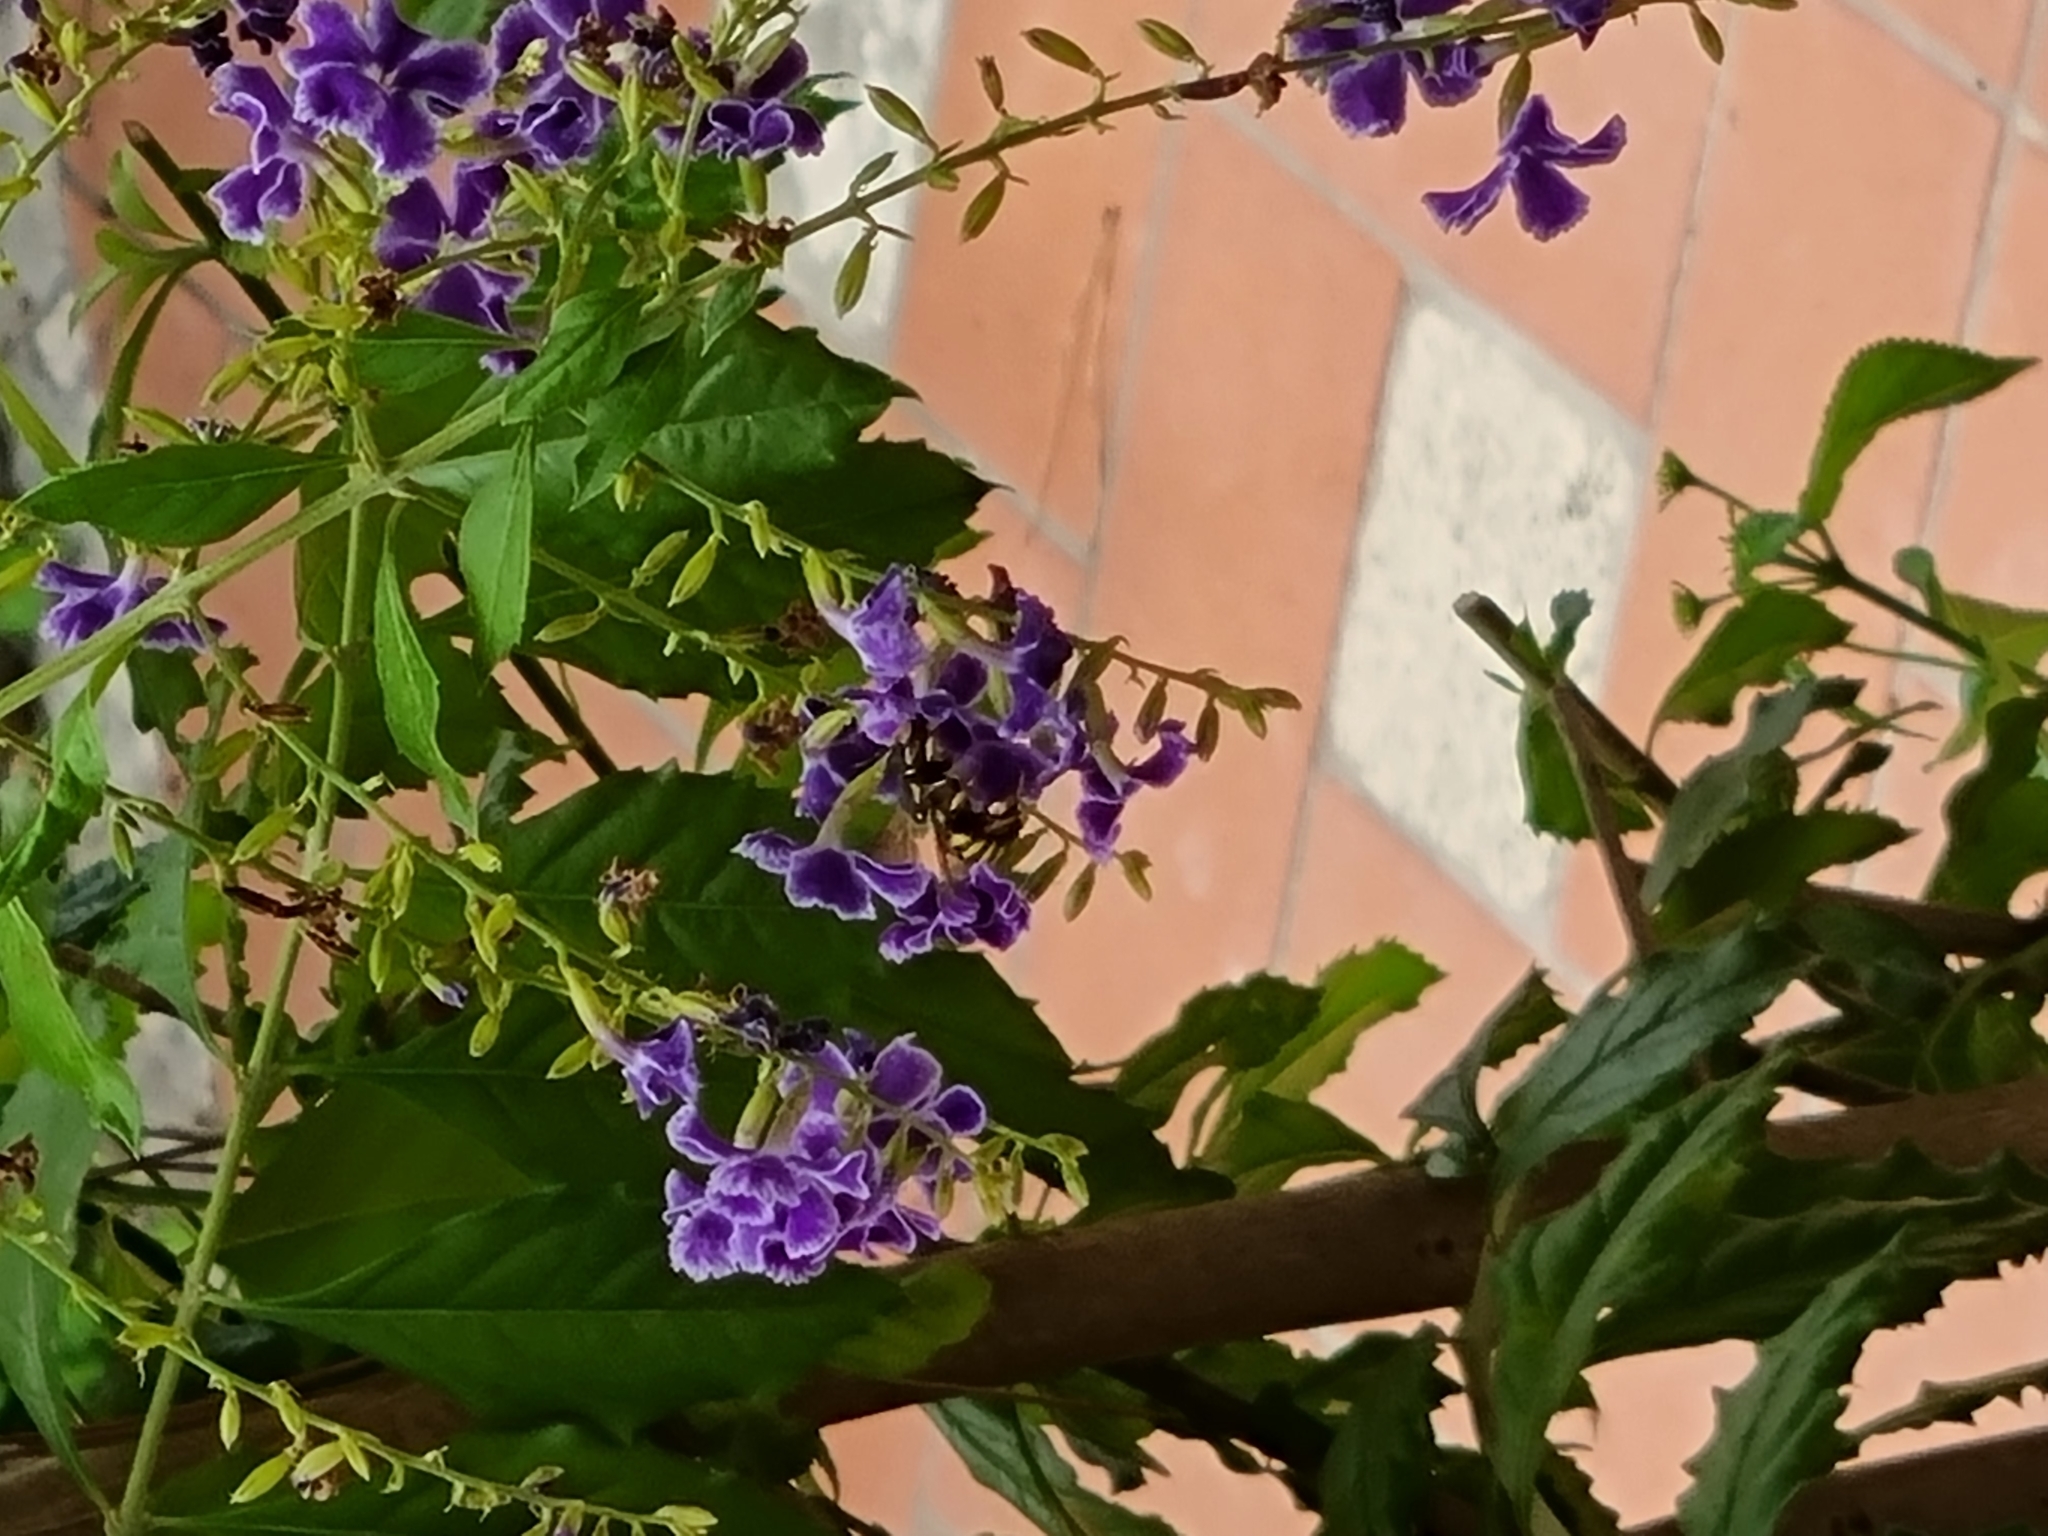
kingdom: Animalia
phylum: Arthropoda
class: Insecta
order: Hymenoptera
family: Megachilidae
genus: Anthidium
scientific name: Anthidium florentinum
